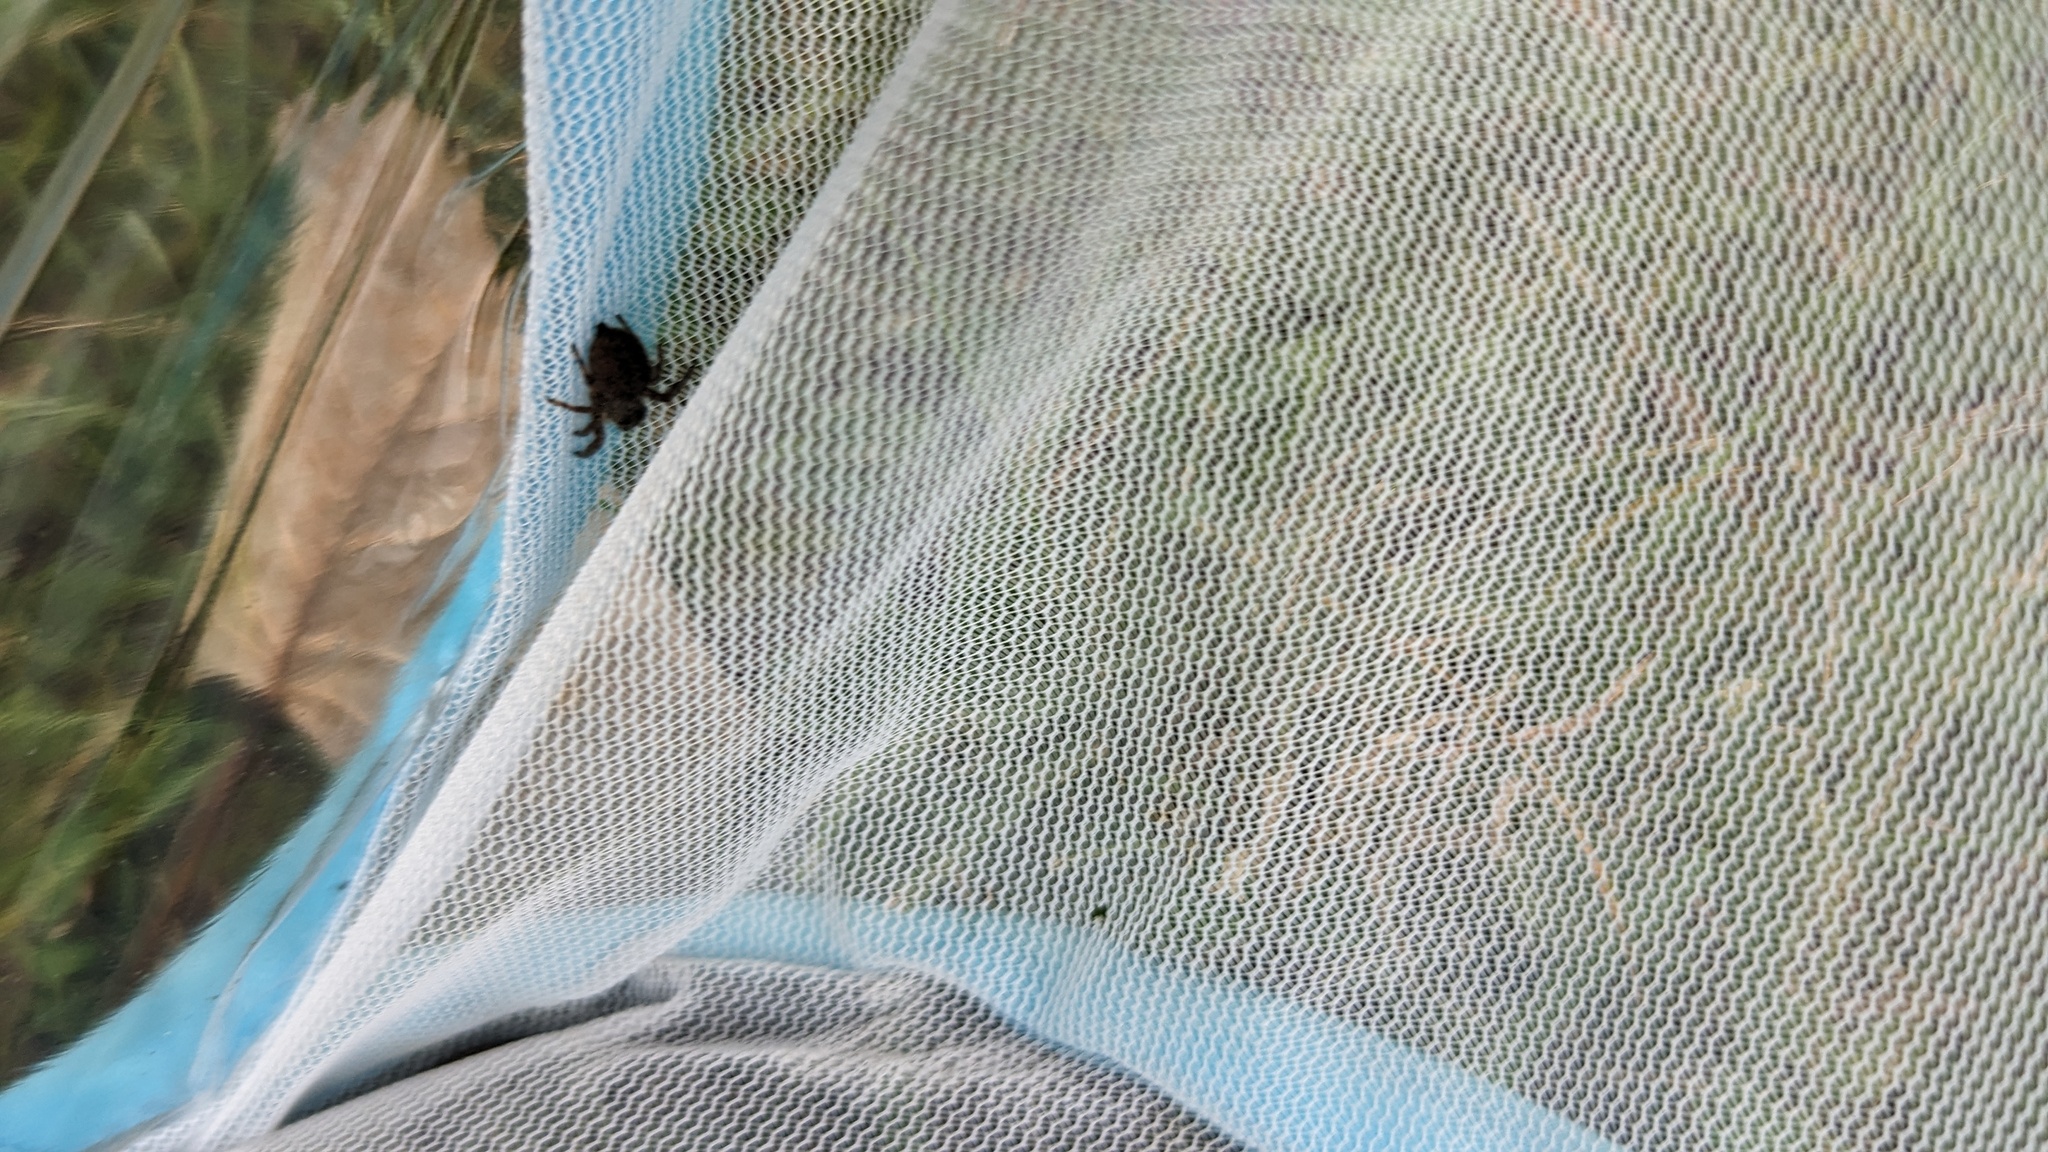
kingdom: Animalia
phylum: Arthropoda
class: Arachnida
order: Araneae
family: Salticidae
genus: Phidippus
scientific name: Phidippus princeps
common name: Grayish jumping spider
